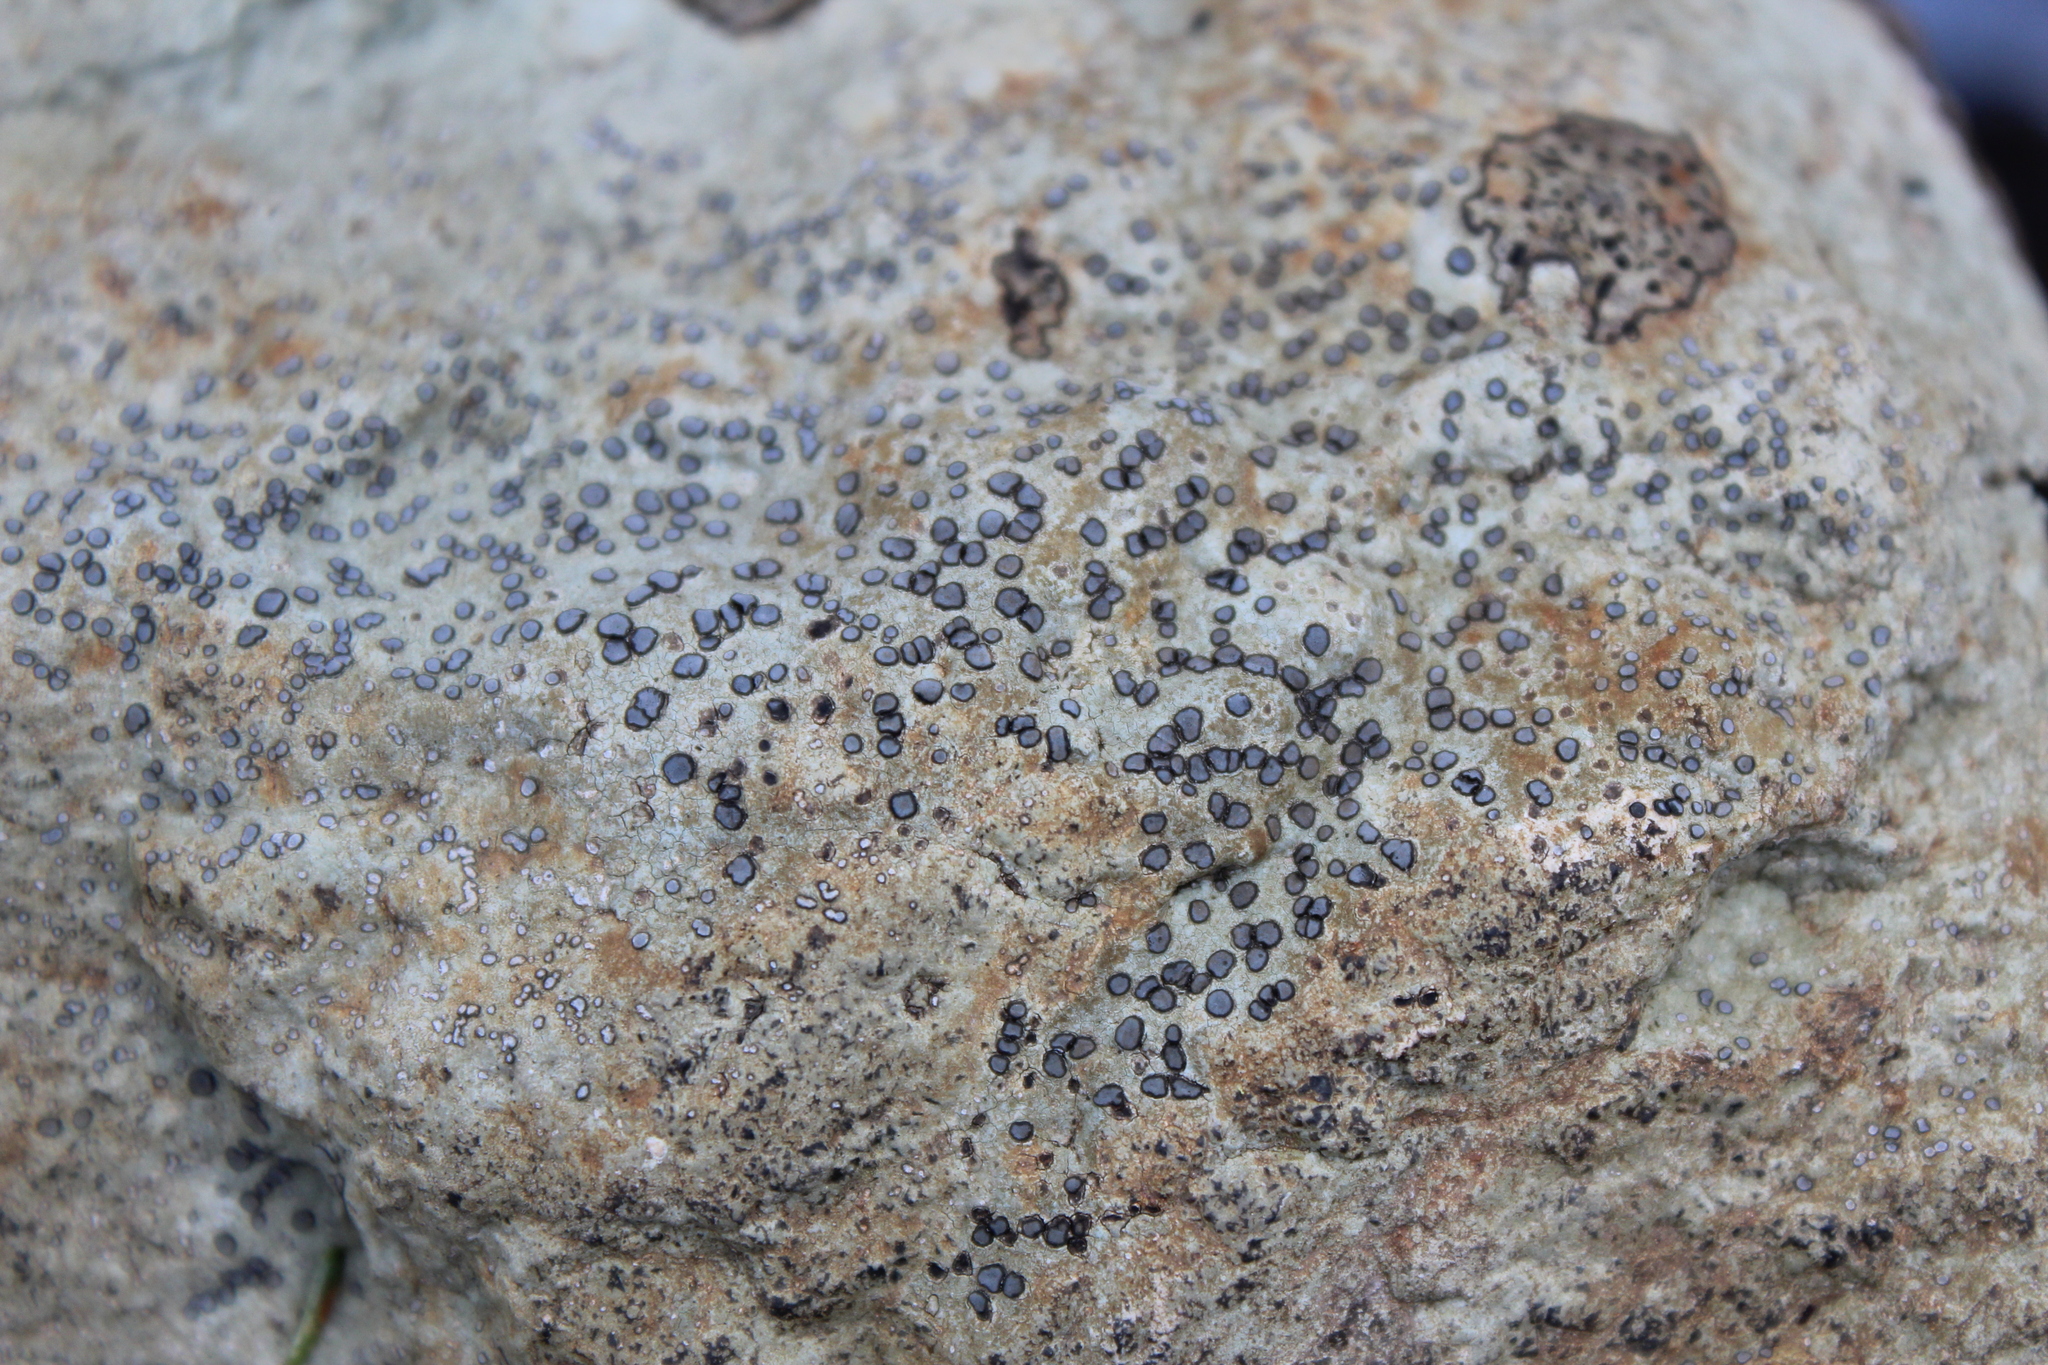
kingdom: Fungi
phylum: Ascomycota
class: Lecanoromycetes
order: Lecideales
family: Lecideaceae
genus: Porpidia
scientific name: Porpidia albocaerulescens
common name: Smokey-eyed boulder lichen
